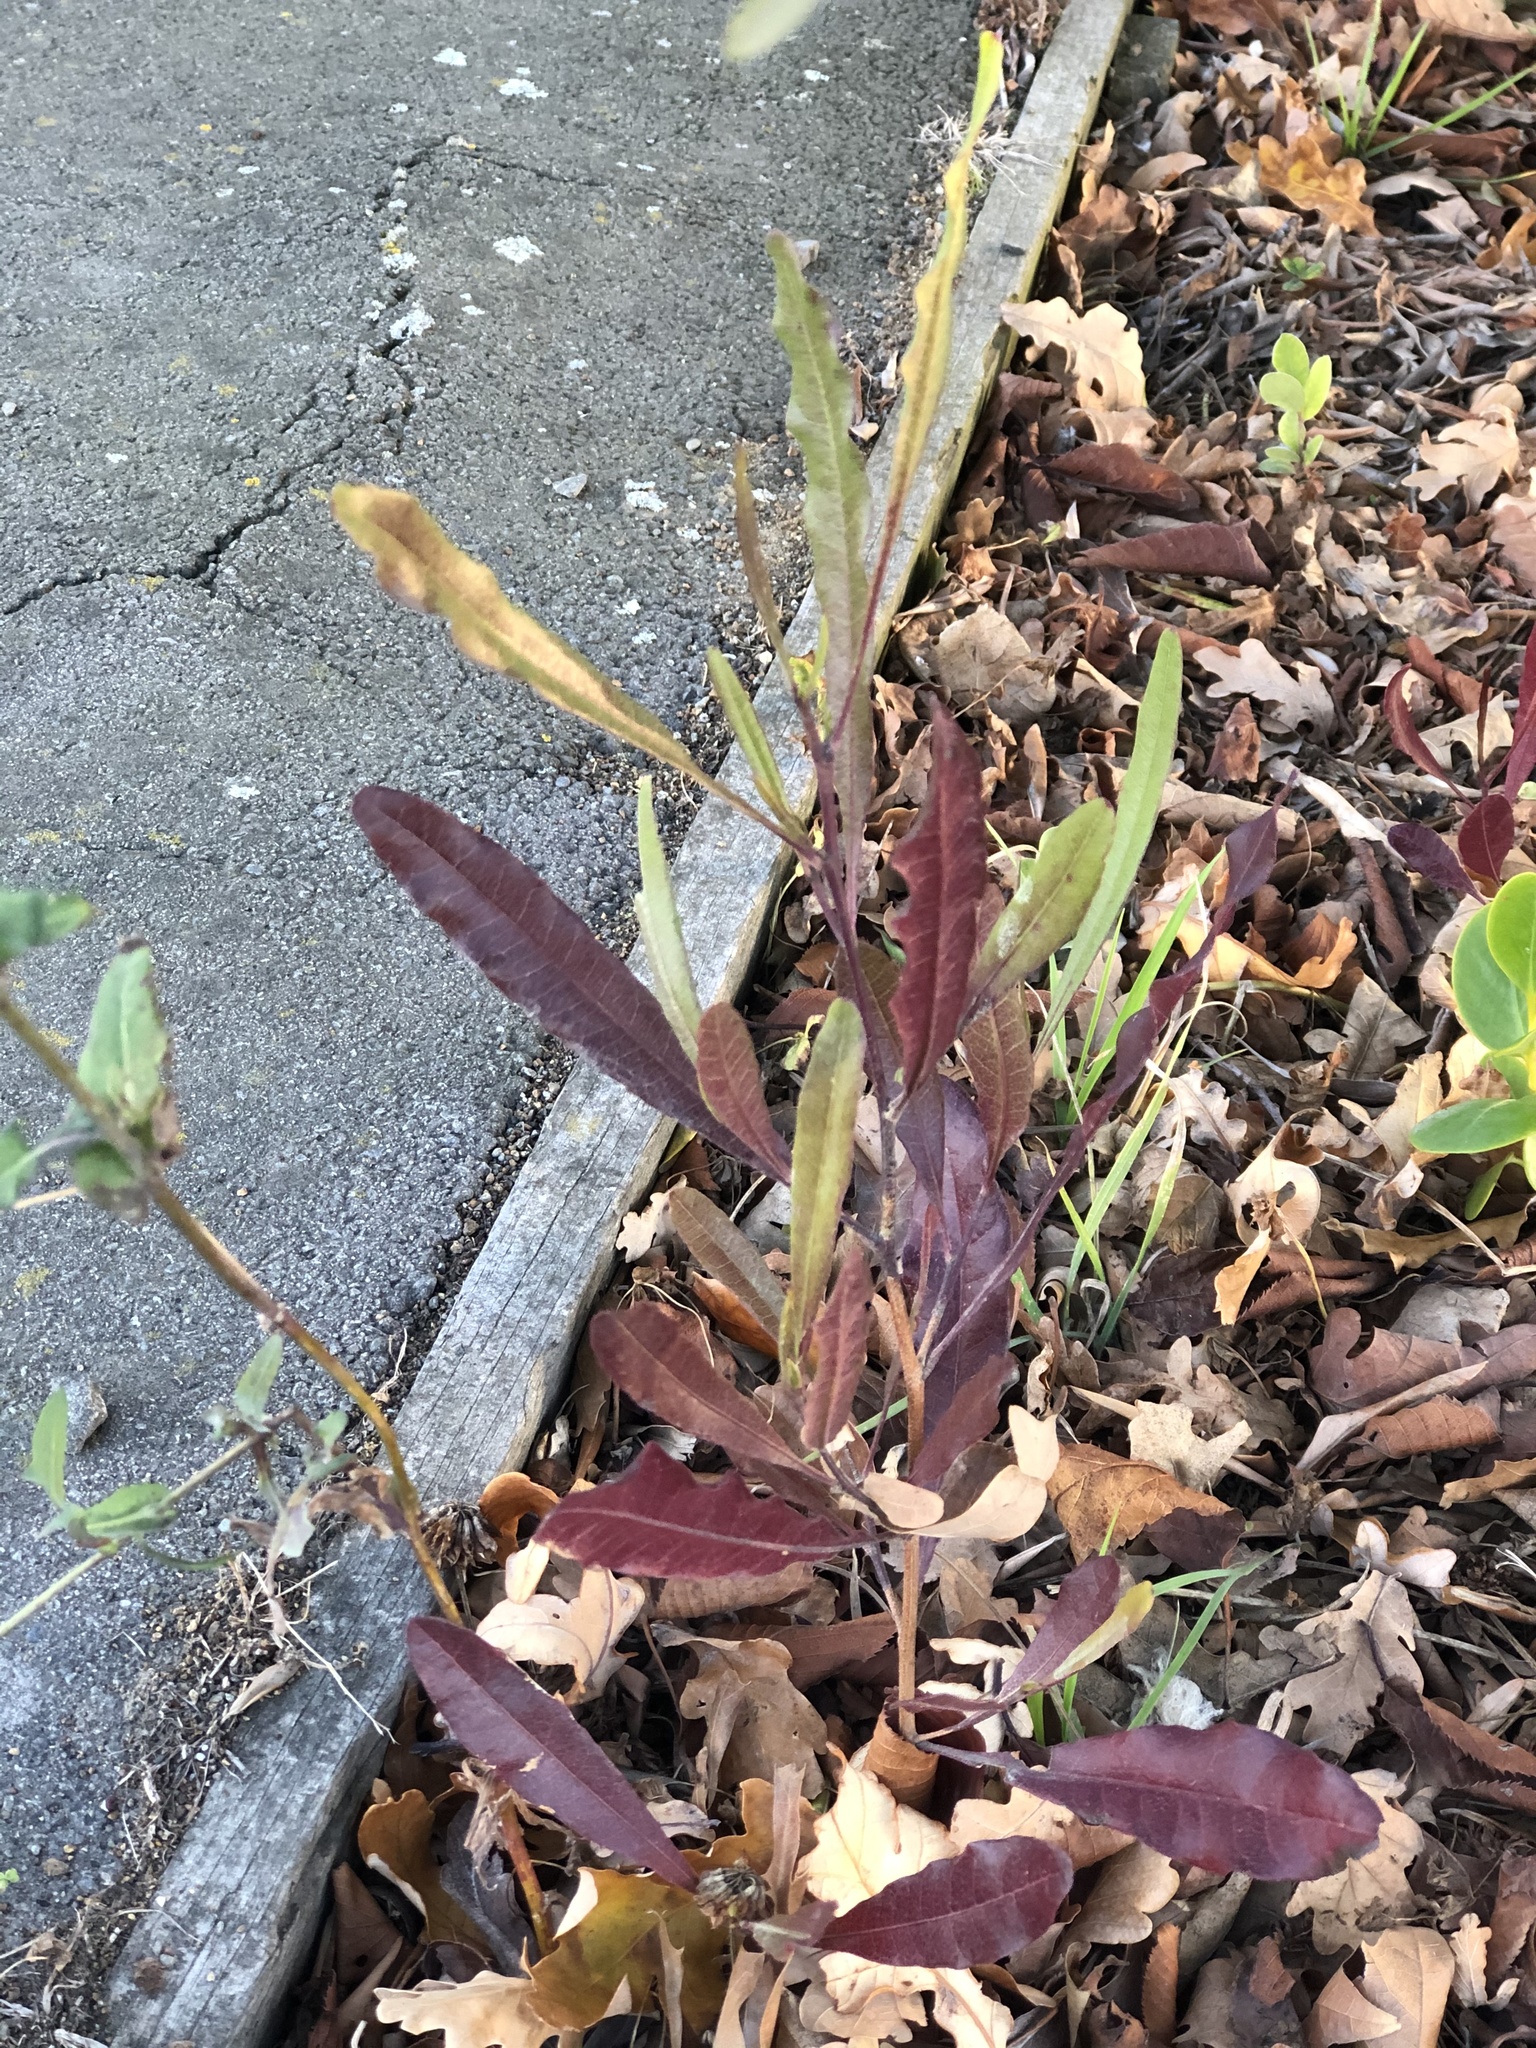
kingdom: Plantae
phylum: Tracheophyta
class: Magnoliopsida
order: Sapindales
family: Sapindaceae
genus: Dodonaea
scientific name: Dodonaea viscosa
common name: Hopbush
